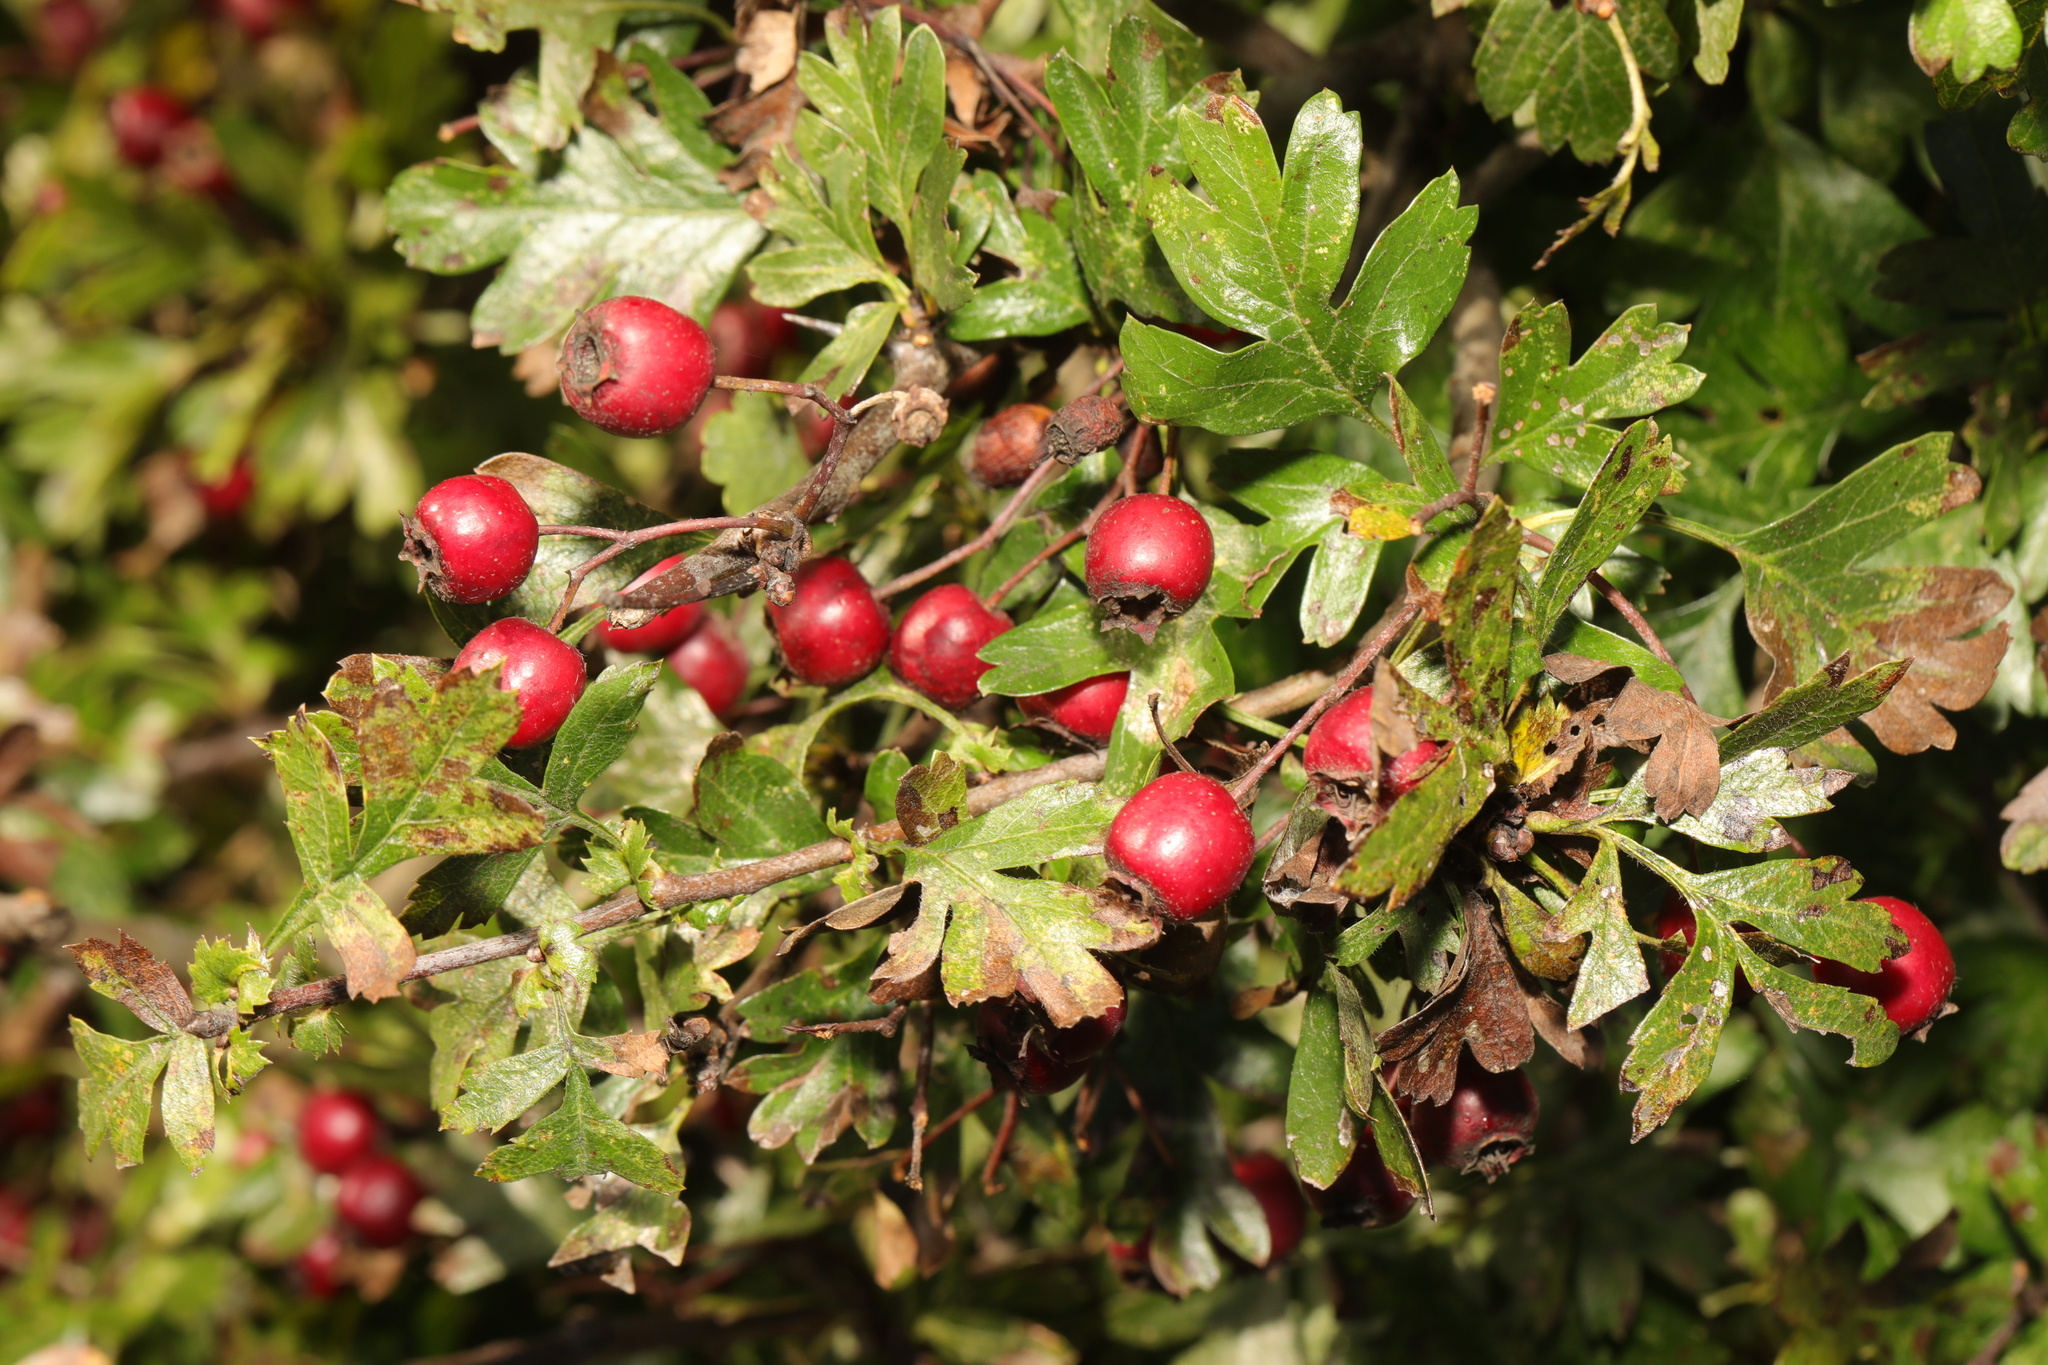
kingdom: Plantae
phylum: Tracheophyta
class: Magnoliopsida
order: Rosales
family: Rosaceae
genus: Crataegus
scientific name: Crataegus monogyna
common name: Hawthorn
